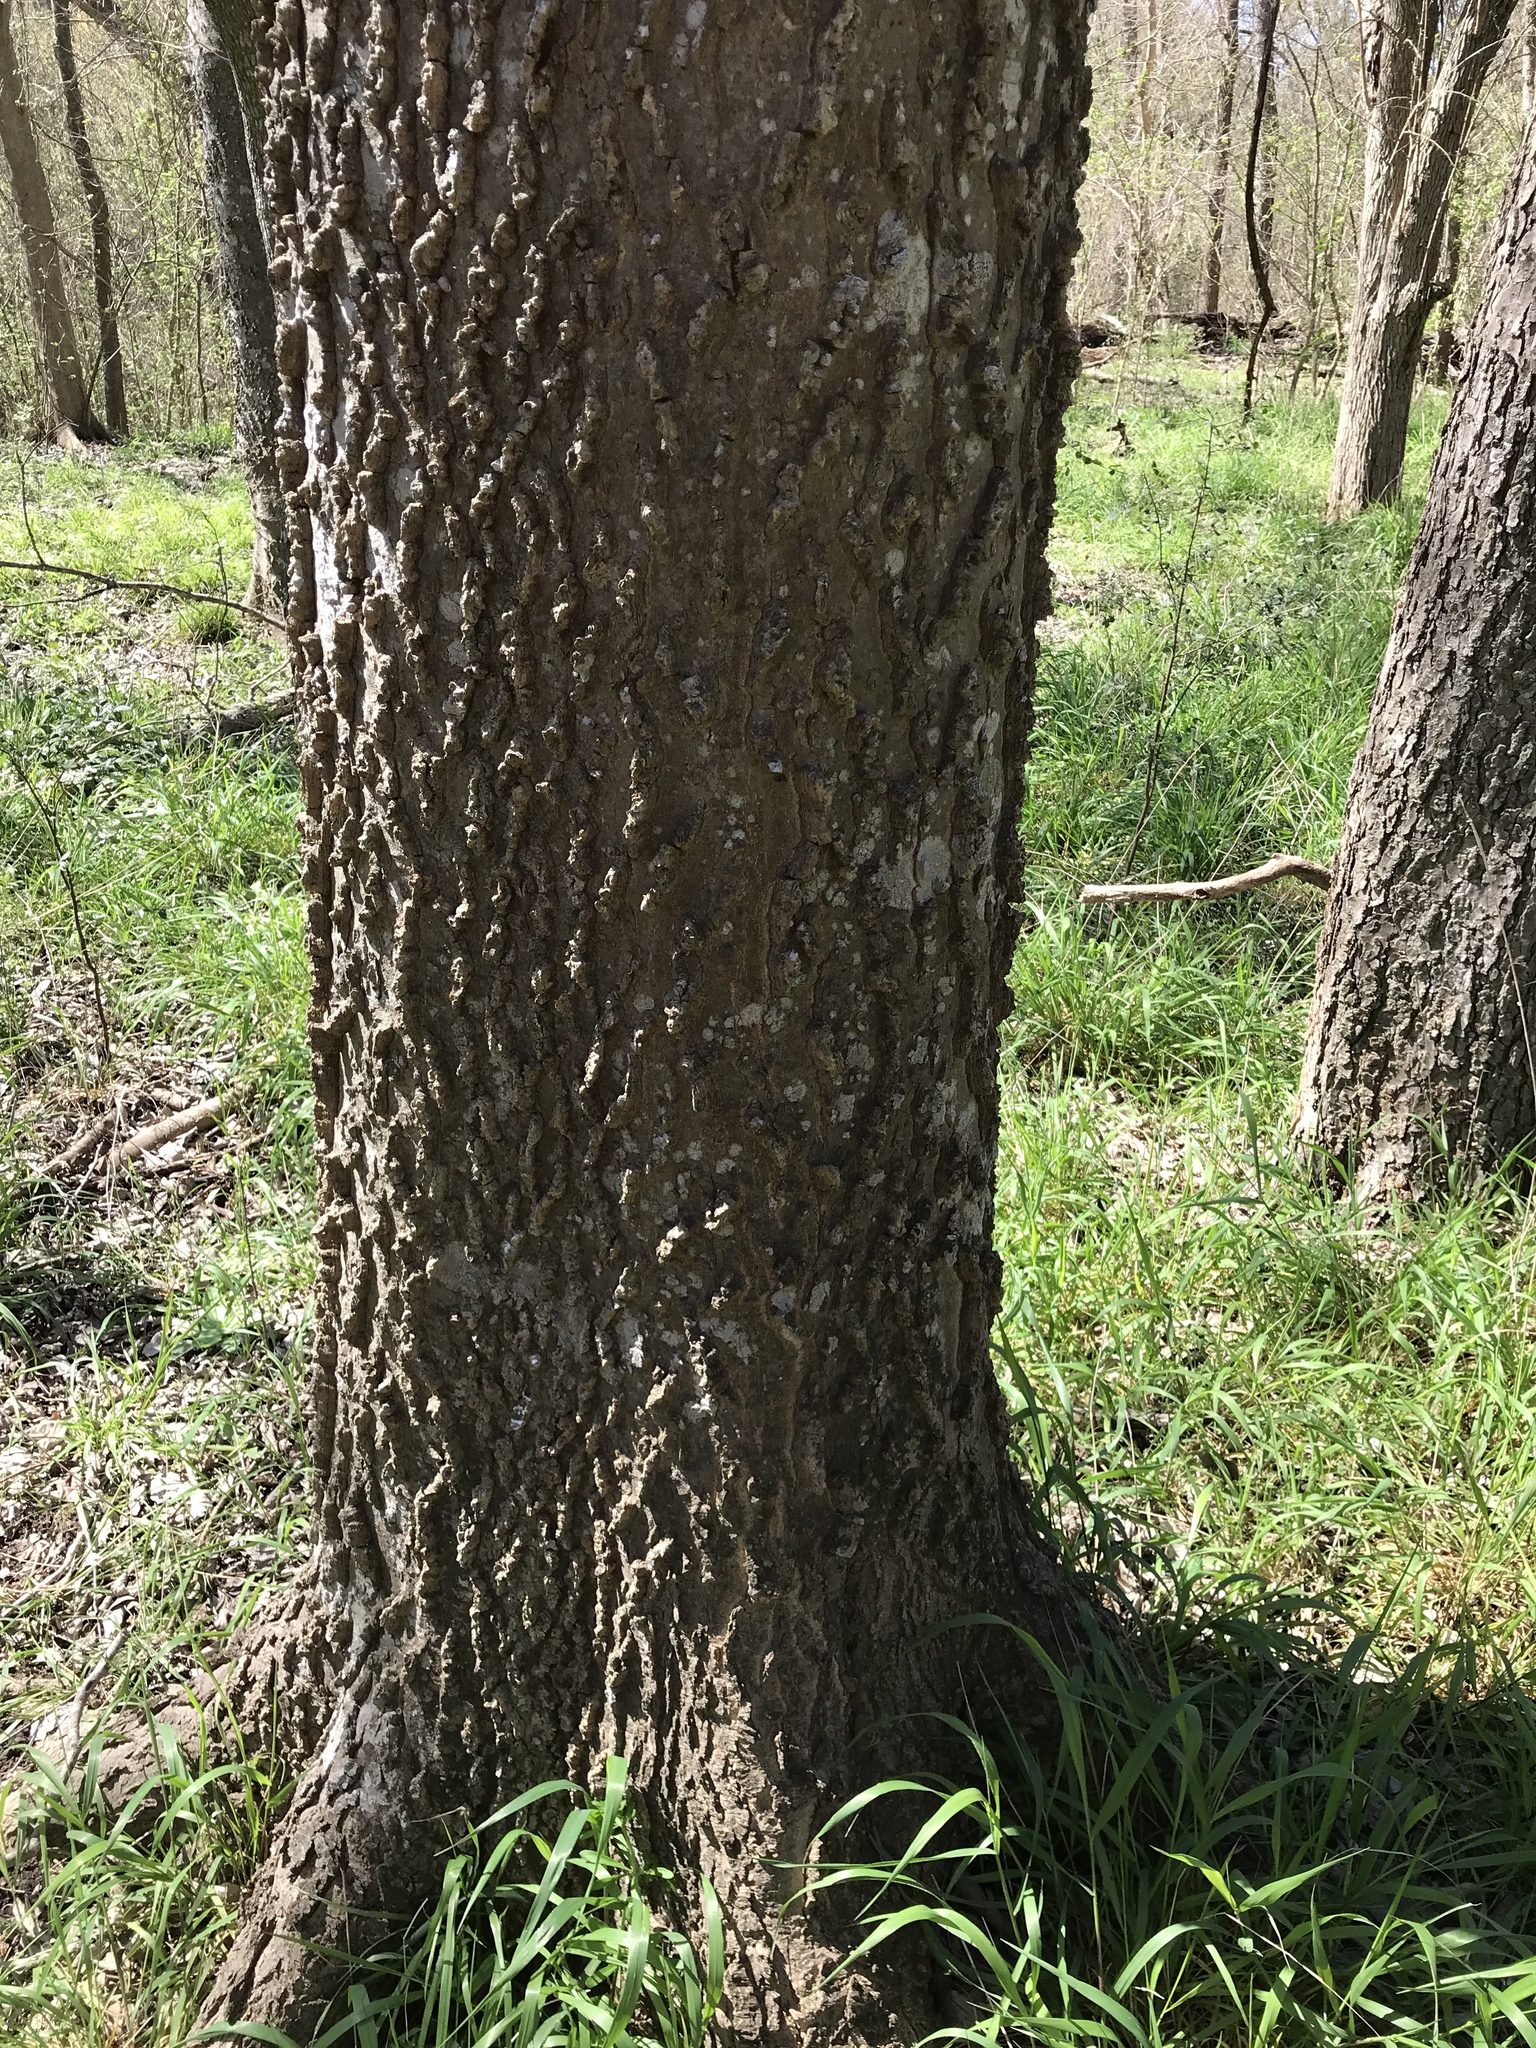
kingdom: Plantae
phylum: Tracheophyta
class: Magnoliopsida
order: Rosales
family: Cannabaceae
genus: Celtis
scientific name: Celtis laevigata
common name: Sugarberry
